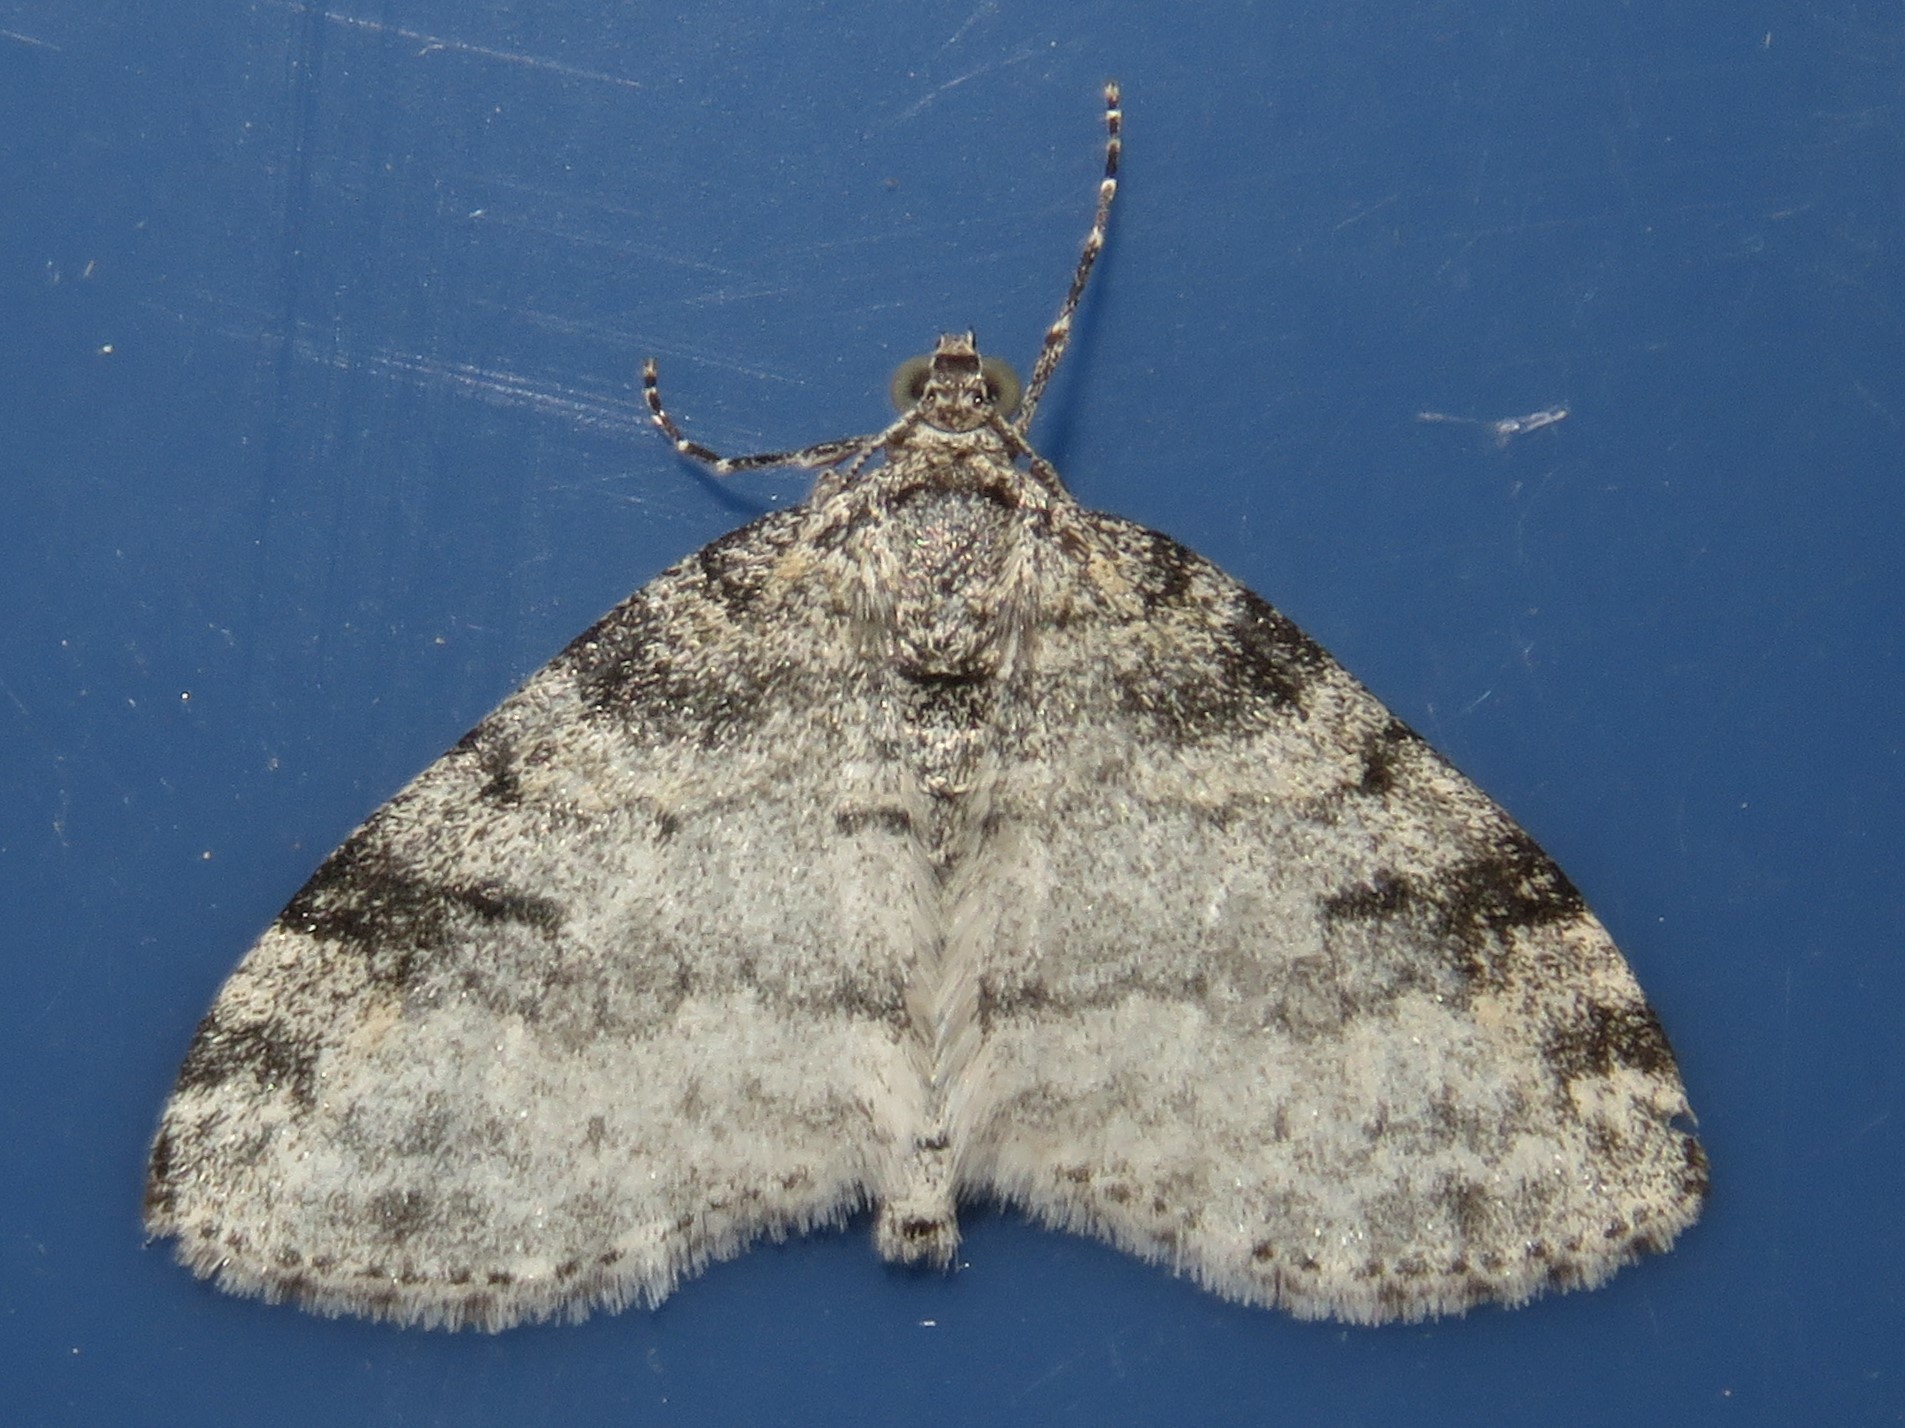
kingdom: Animalia
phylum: Arthropoda
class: Insecta
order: Lepidoptera
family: Geometridae
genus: Lobophora
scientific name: Lobophora nivigerata
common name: Powdered bigwing
